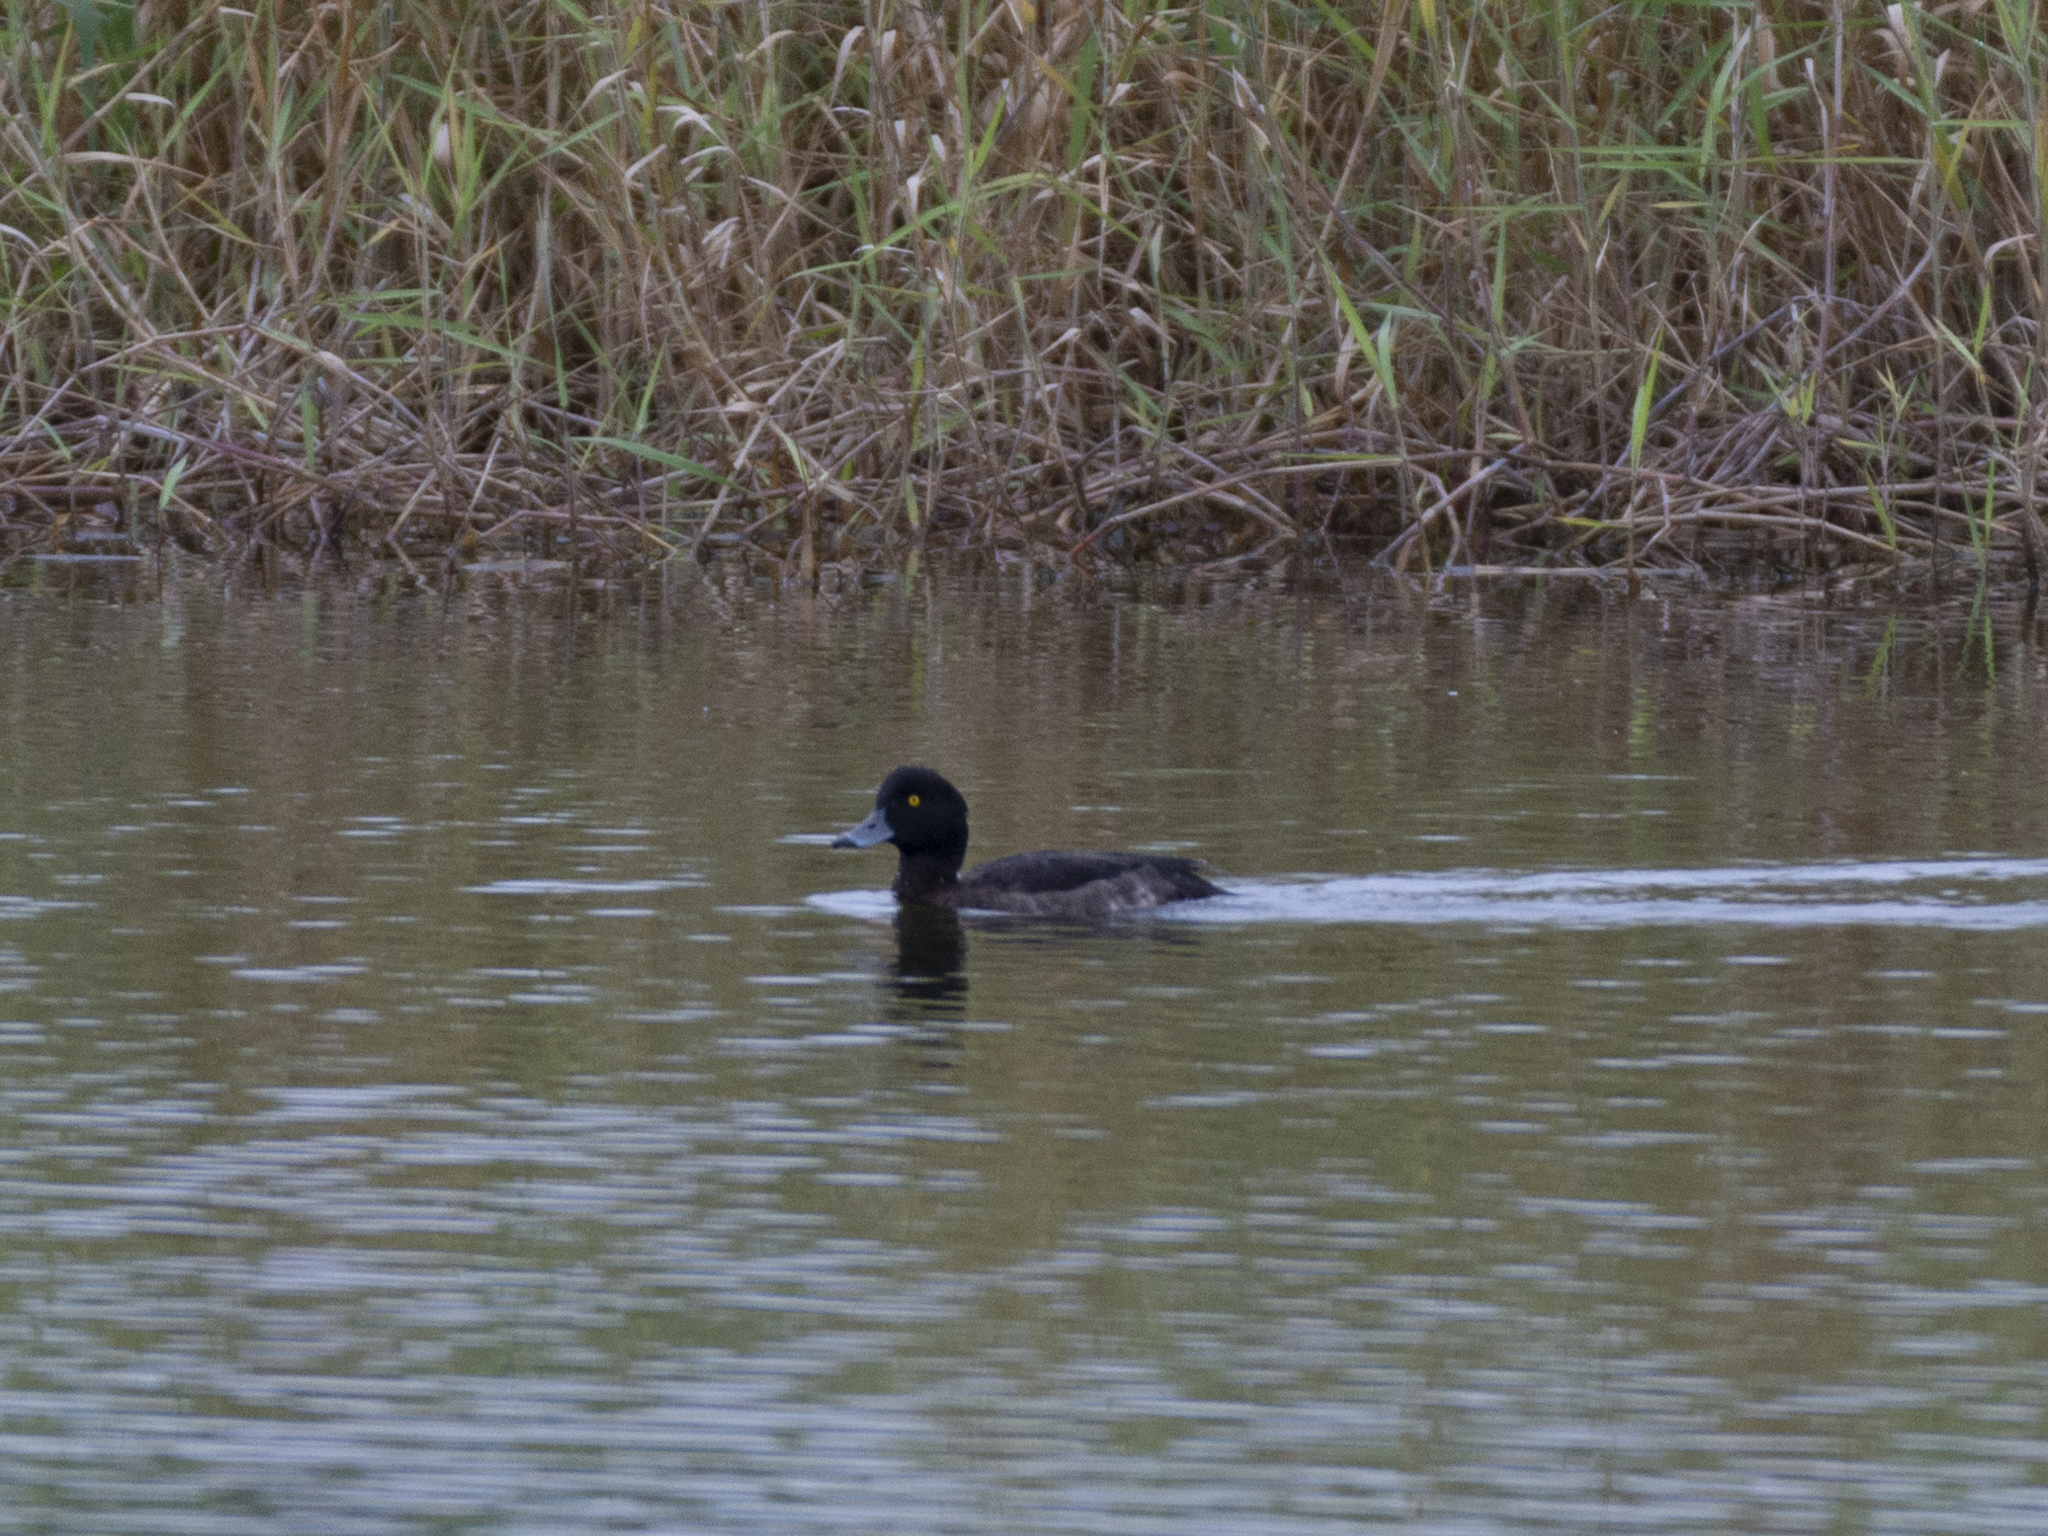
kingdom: Animalia
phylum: Chordata
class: Aves
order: Anseriformes
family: Anatidae
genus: Aythya
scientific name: Aythya fuligula
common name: Tufted duck
